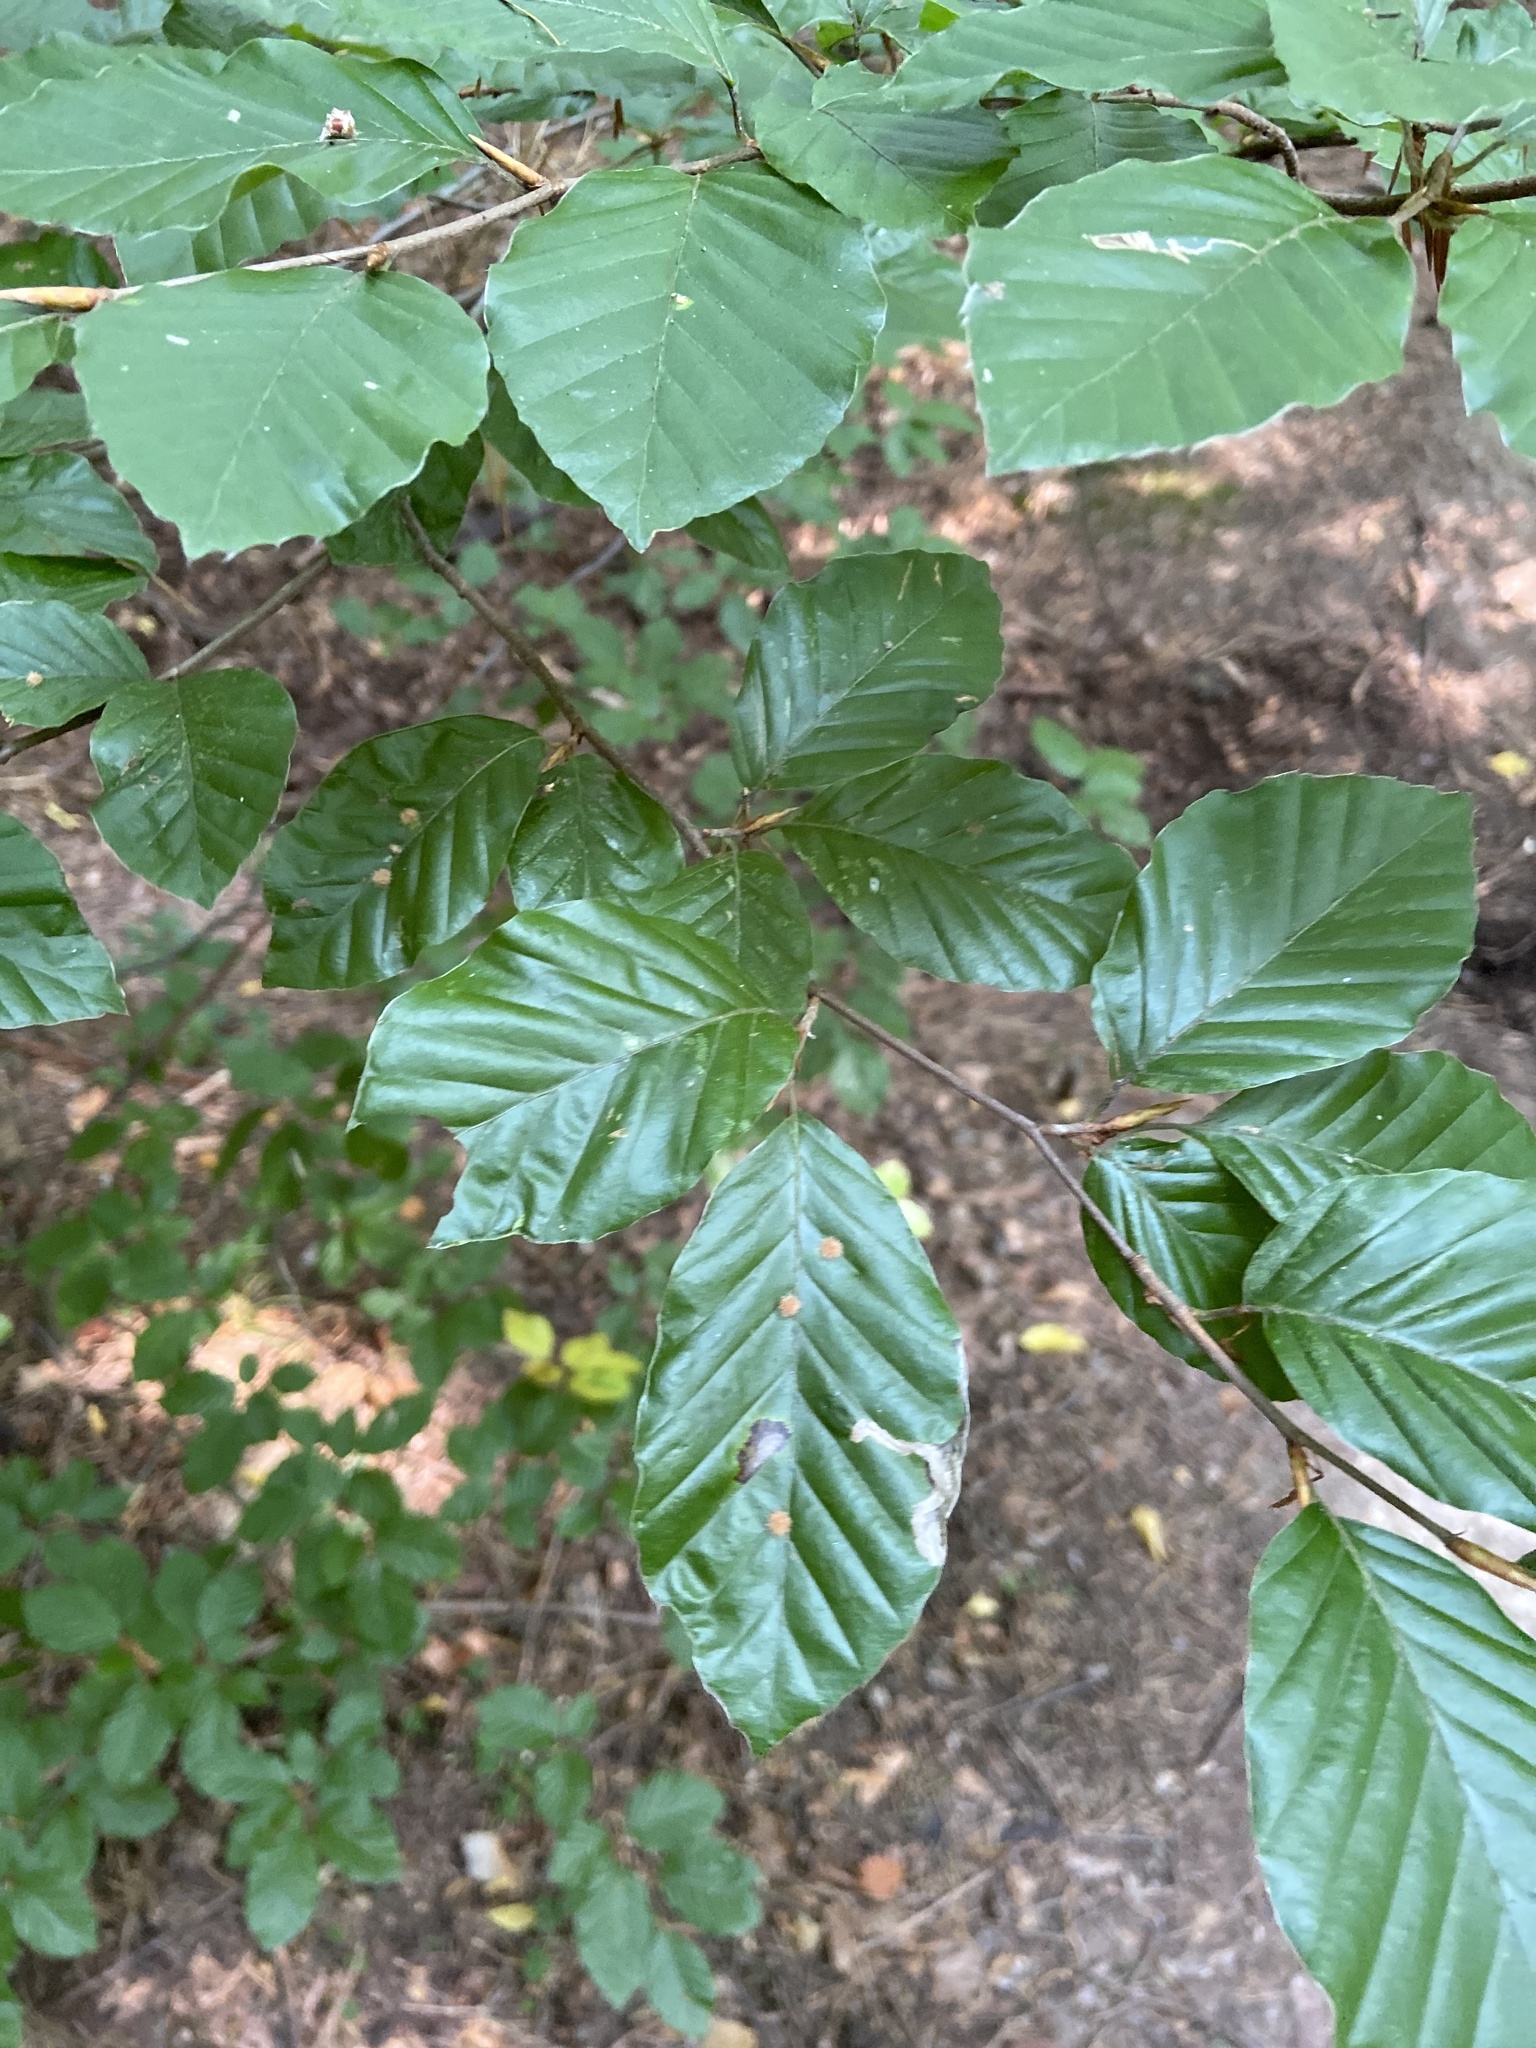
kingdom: Animalia
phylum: Arthropoda
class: Insecta
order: Diptera
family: Cecidomyiidae
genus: Hartigiola
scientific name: Hartigiola annulipes
